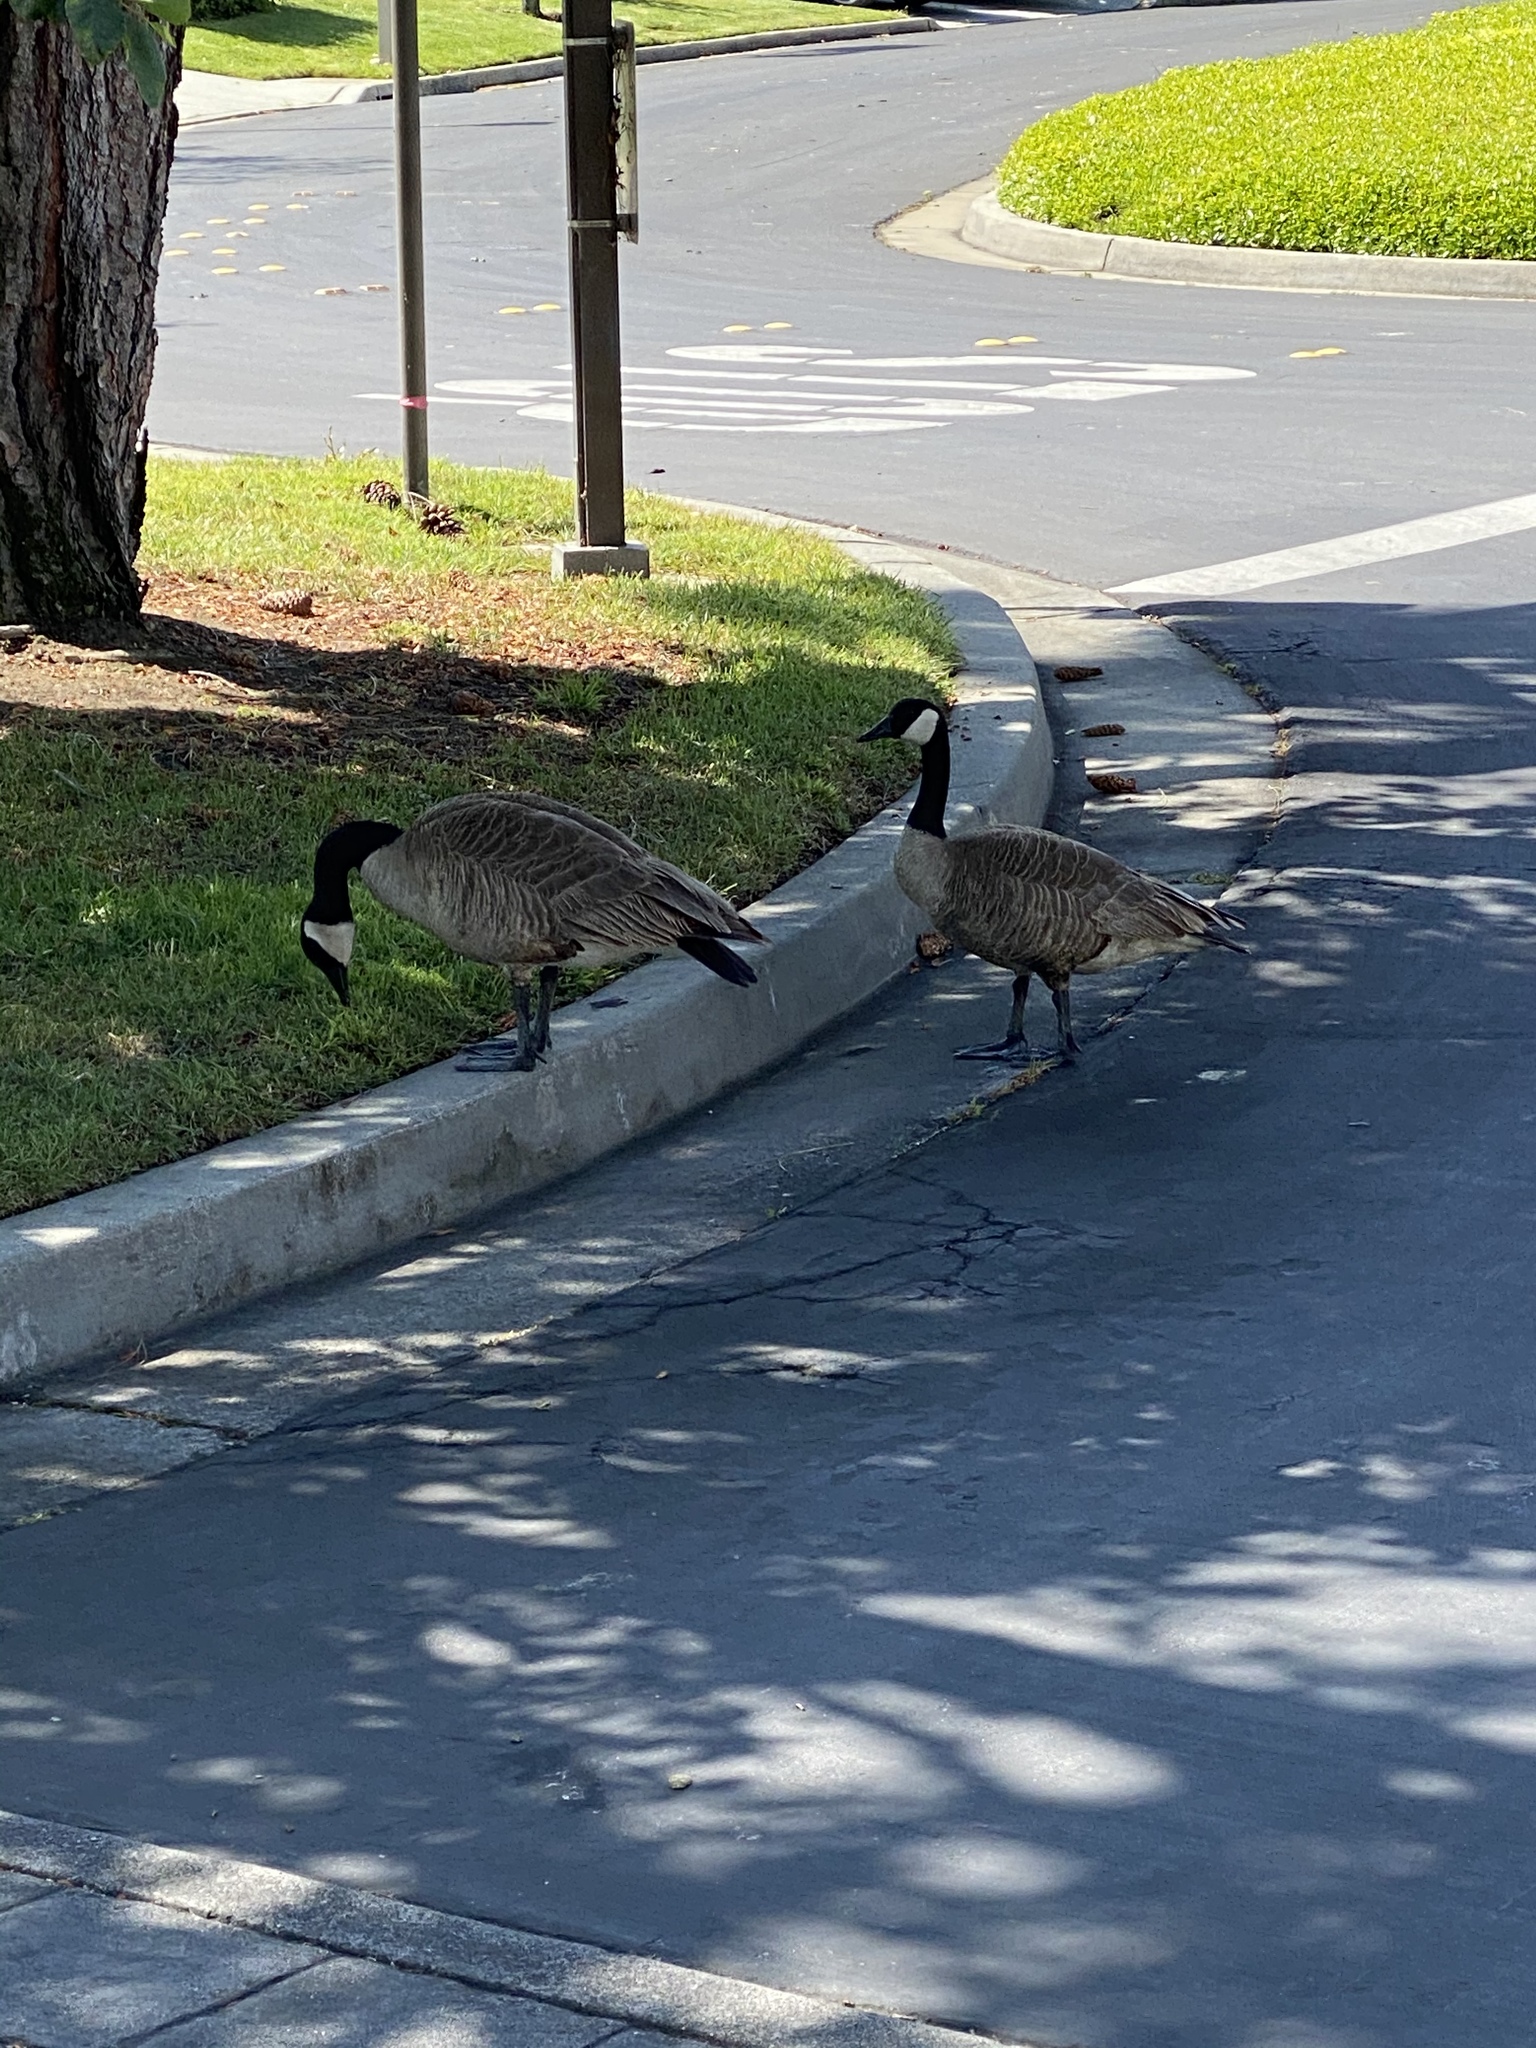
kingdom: Animalia
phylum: Chordata
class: Aves
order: Anseriformes
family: Anatidae
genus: Branta
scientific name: Branta canadensis
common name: Canada goose
